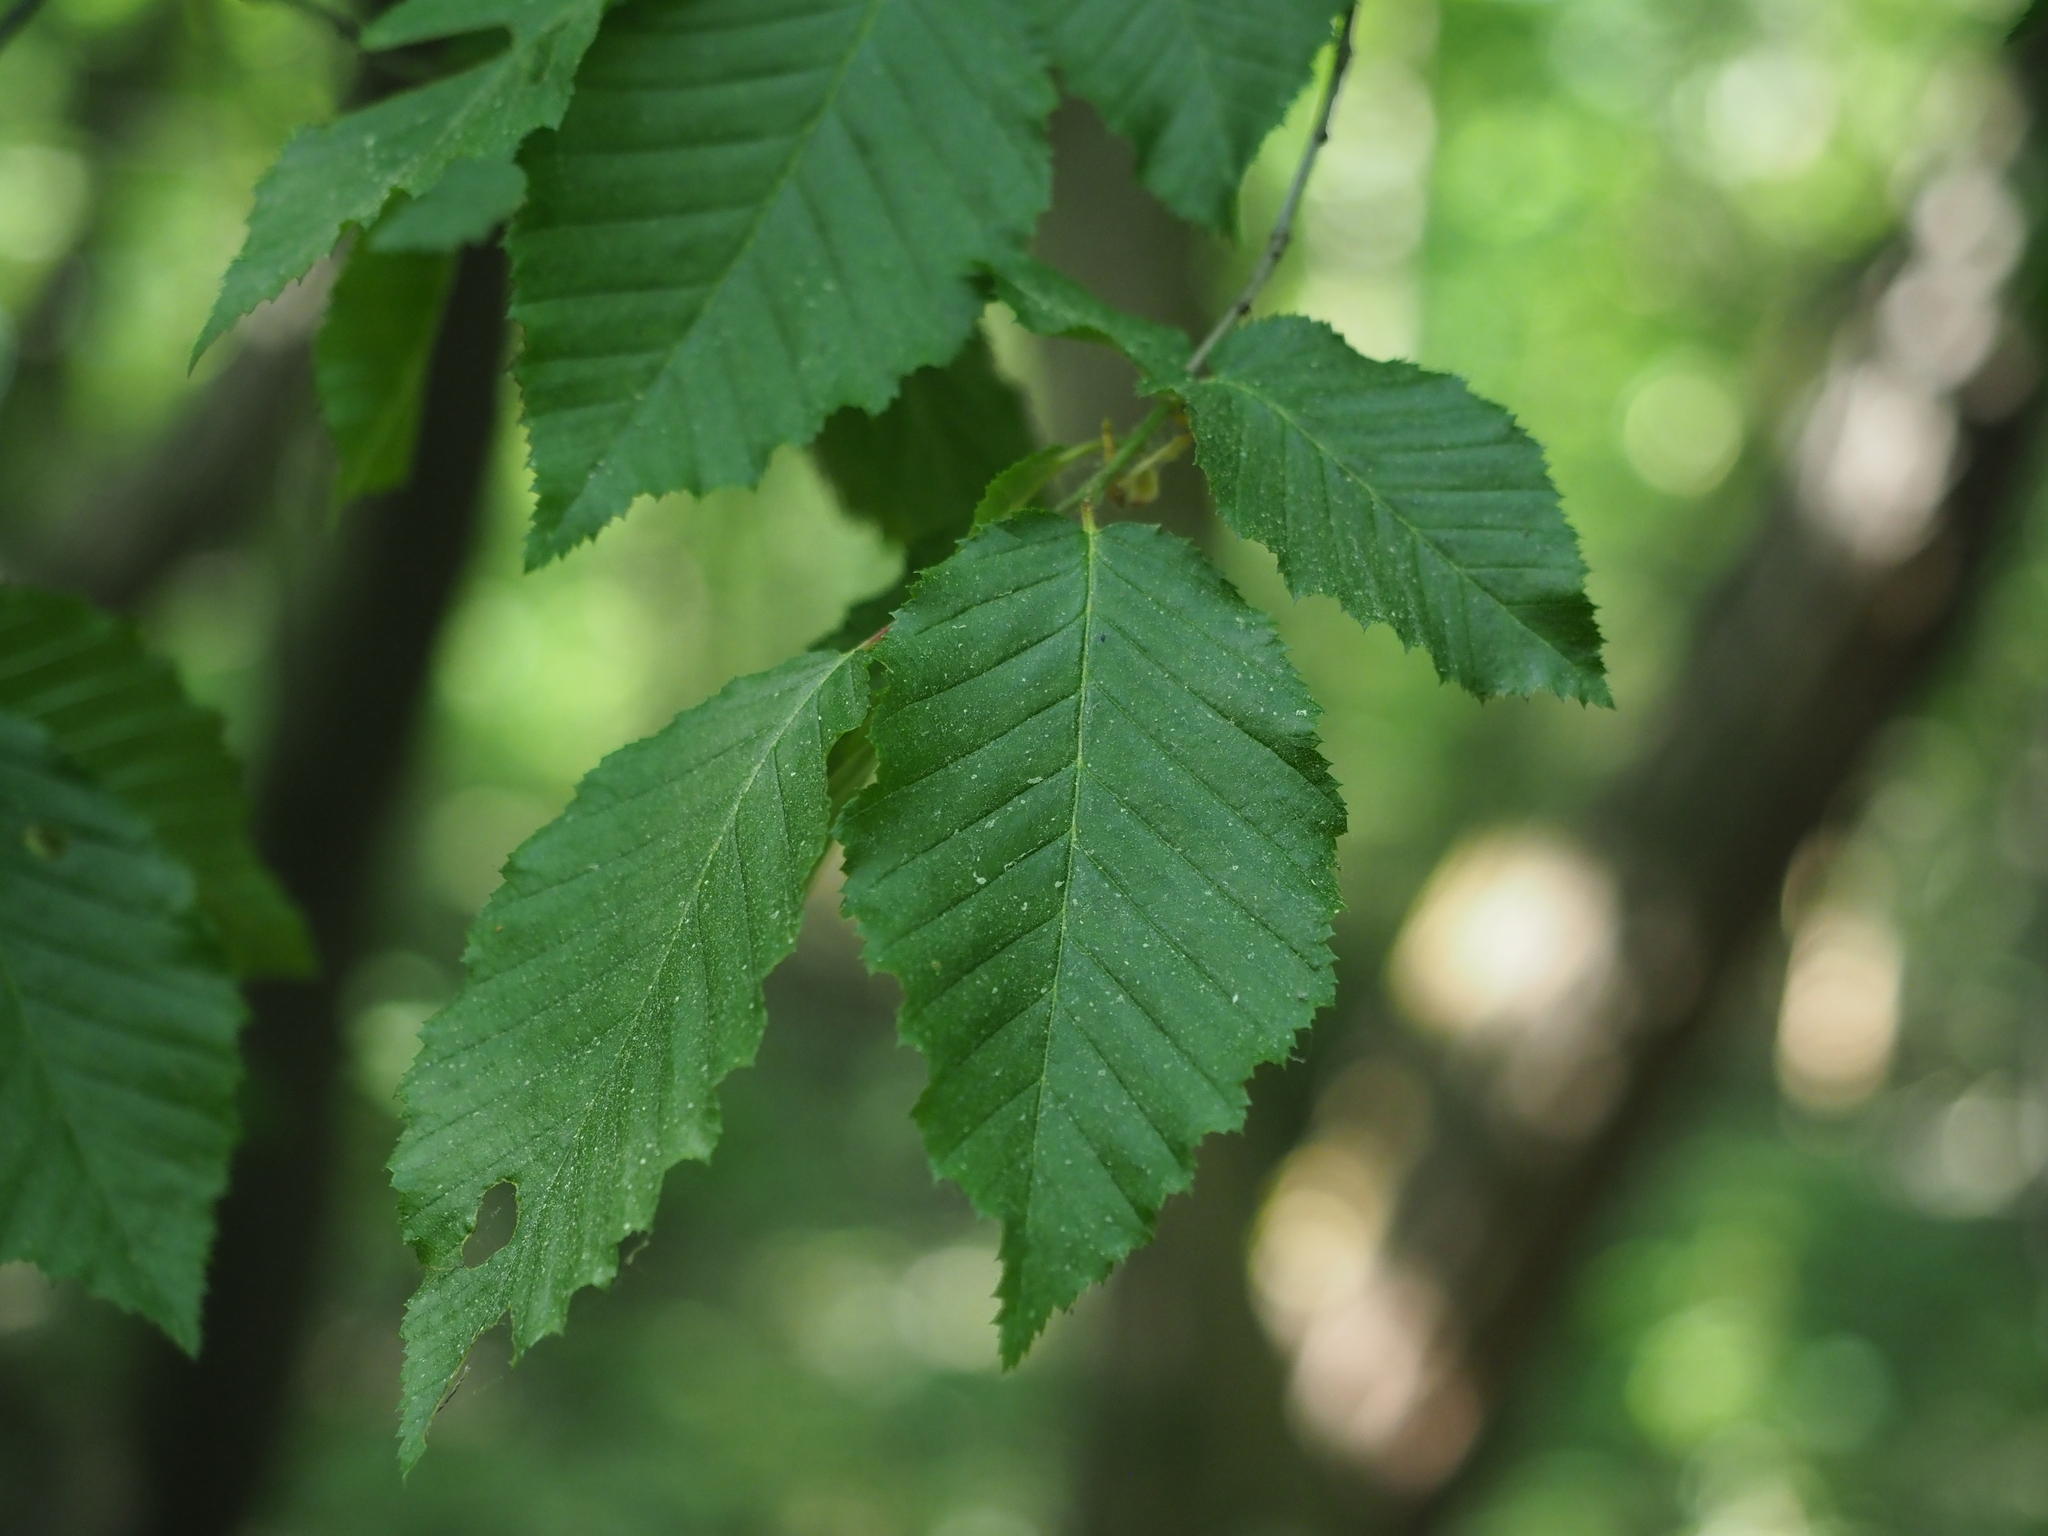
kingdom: Plantae
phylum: Tracheophyta
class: Magnoliopsida
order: Fagales
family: Betulaceae
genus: Carpinus
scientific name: Carpinus betulus
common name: Hornbeam
